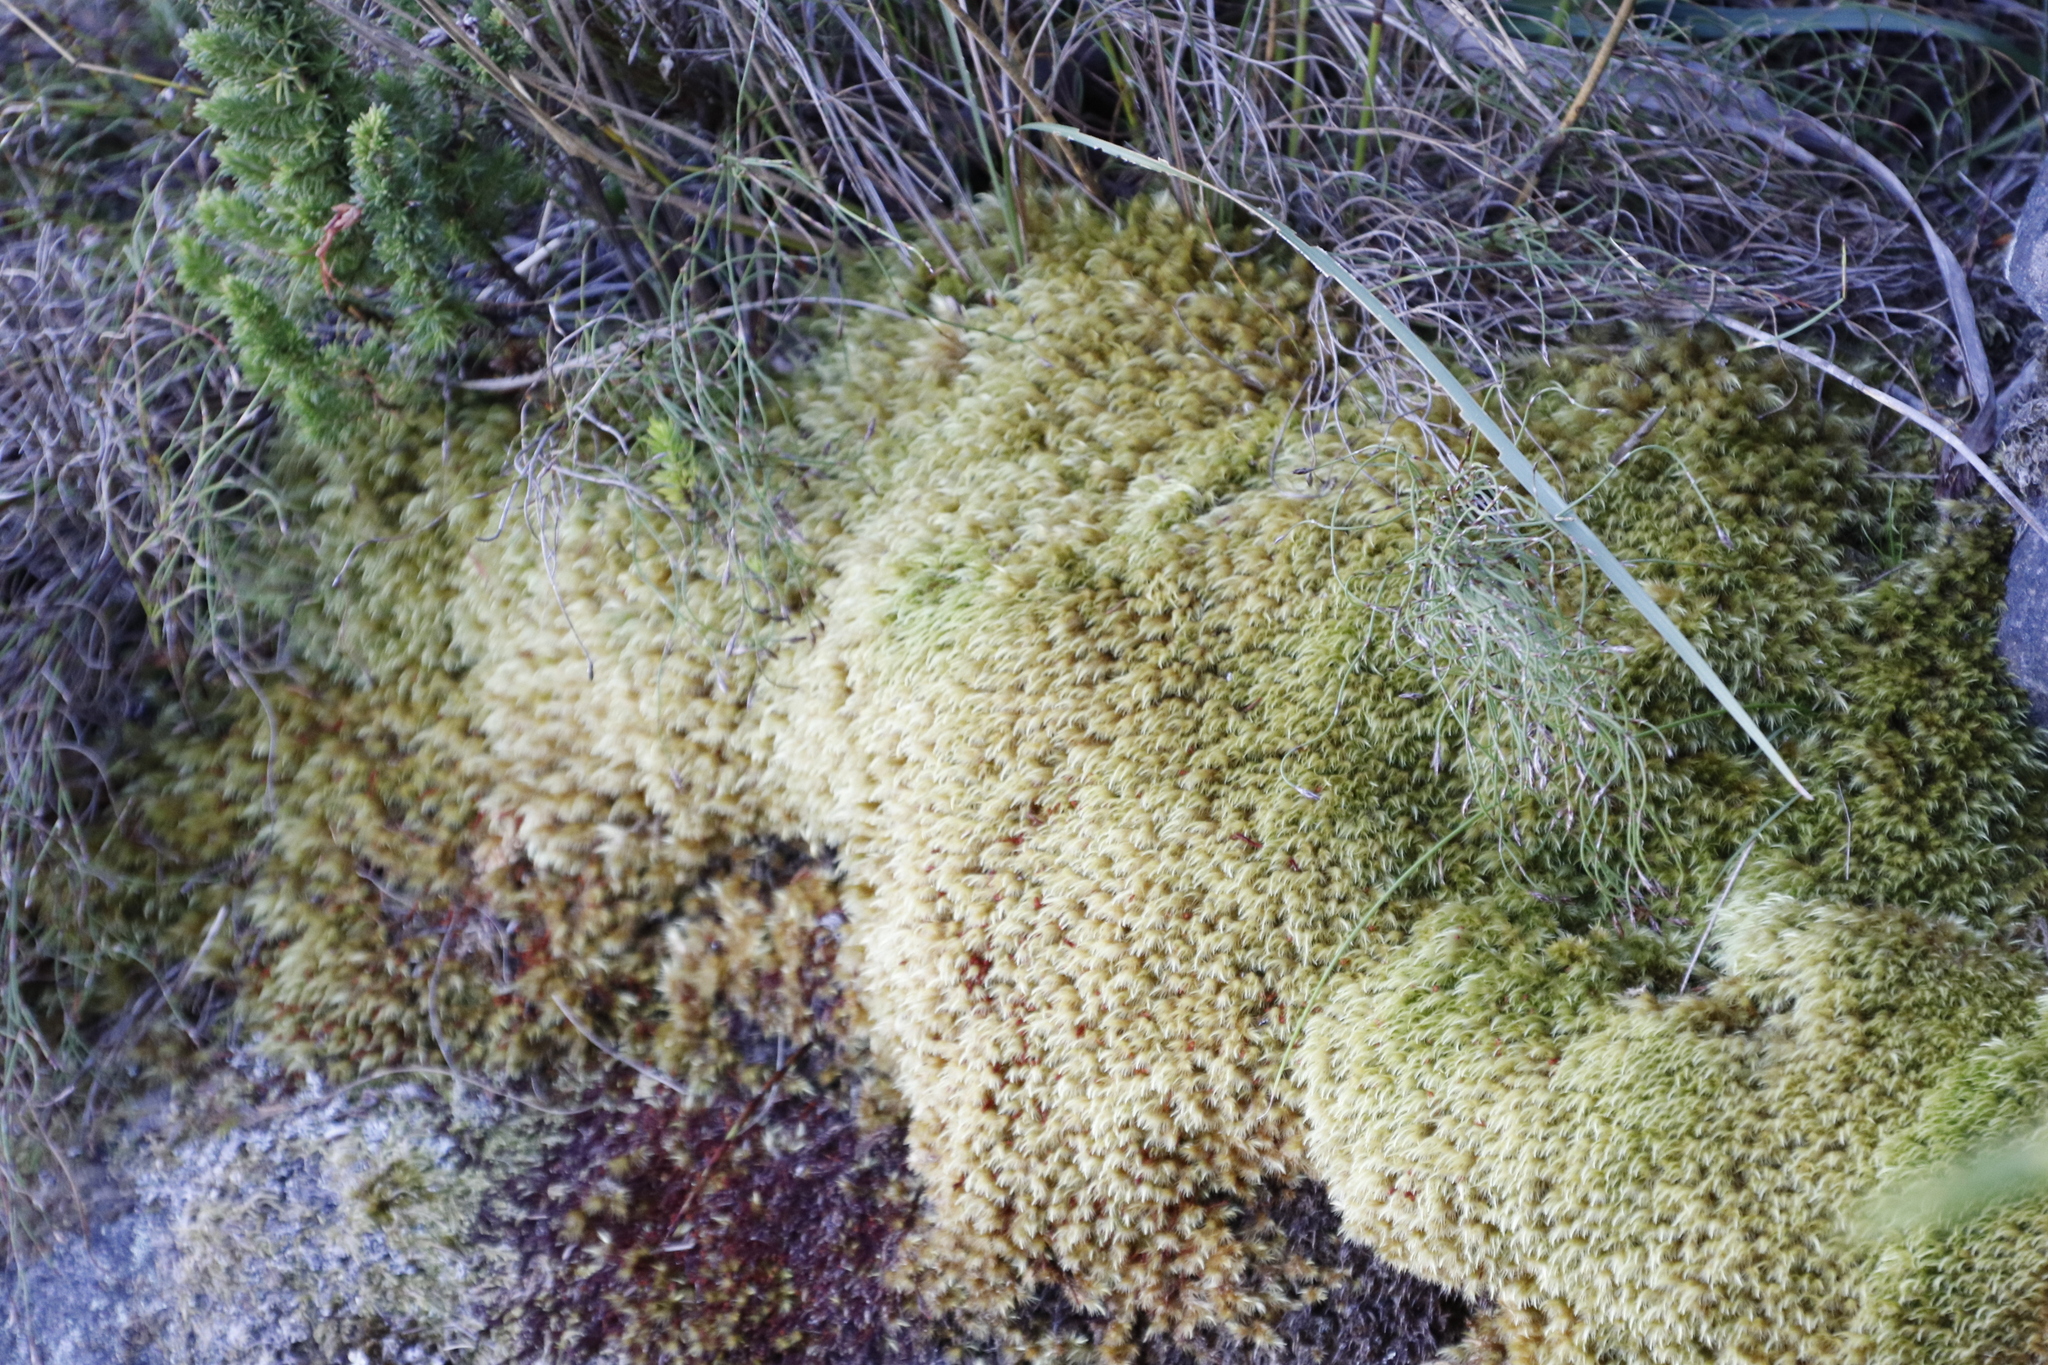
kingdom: Plantae
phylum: Bryophyta
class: Bryopsida
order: Dicranales
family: Dicranaceae
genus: Dicranoloma
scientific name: Dicranoloma billardieri
